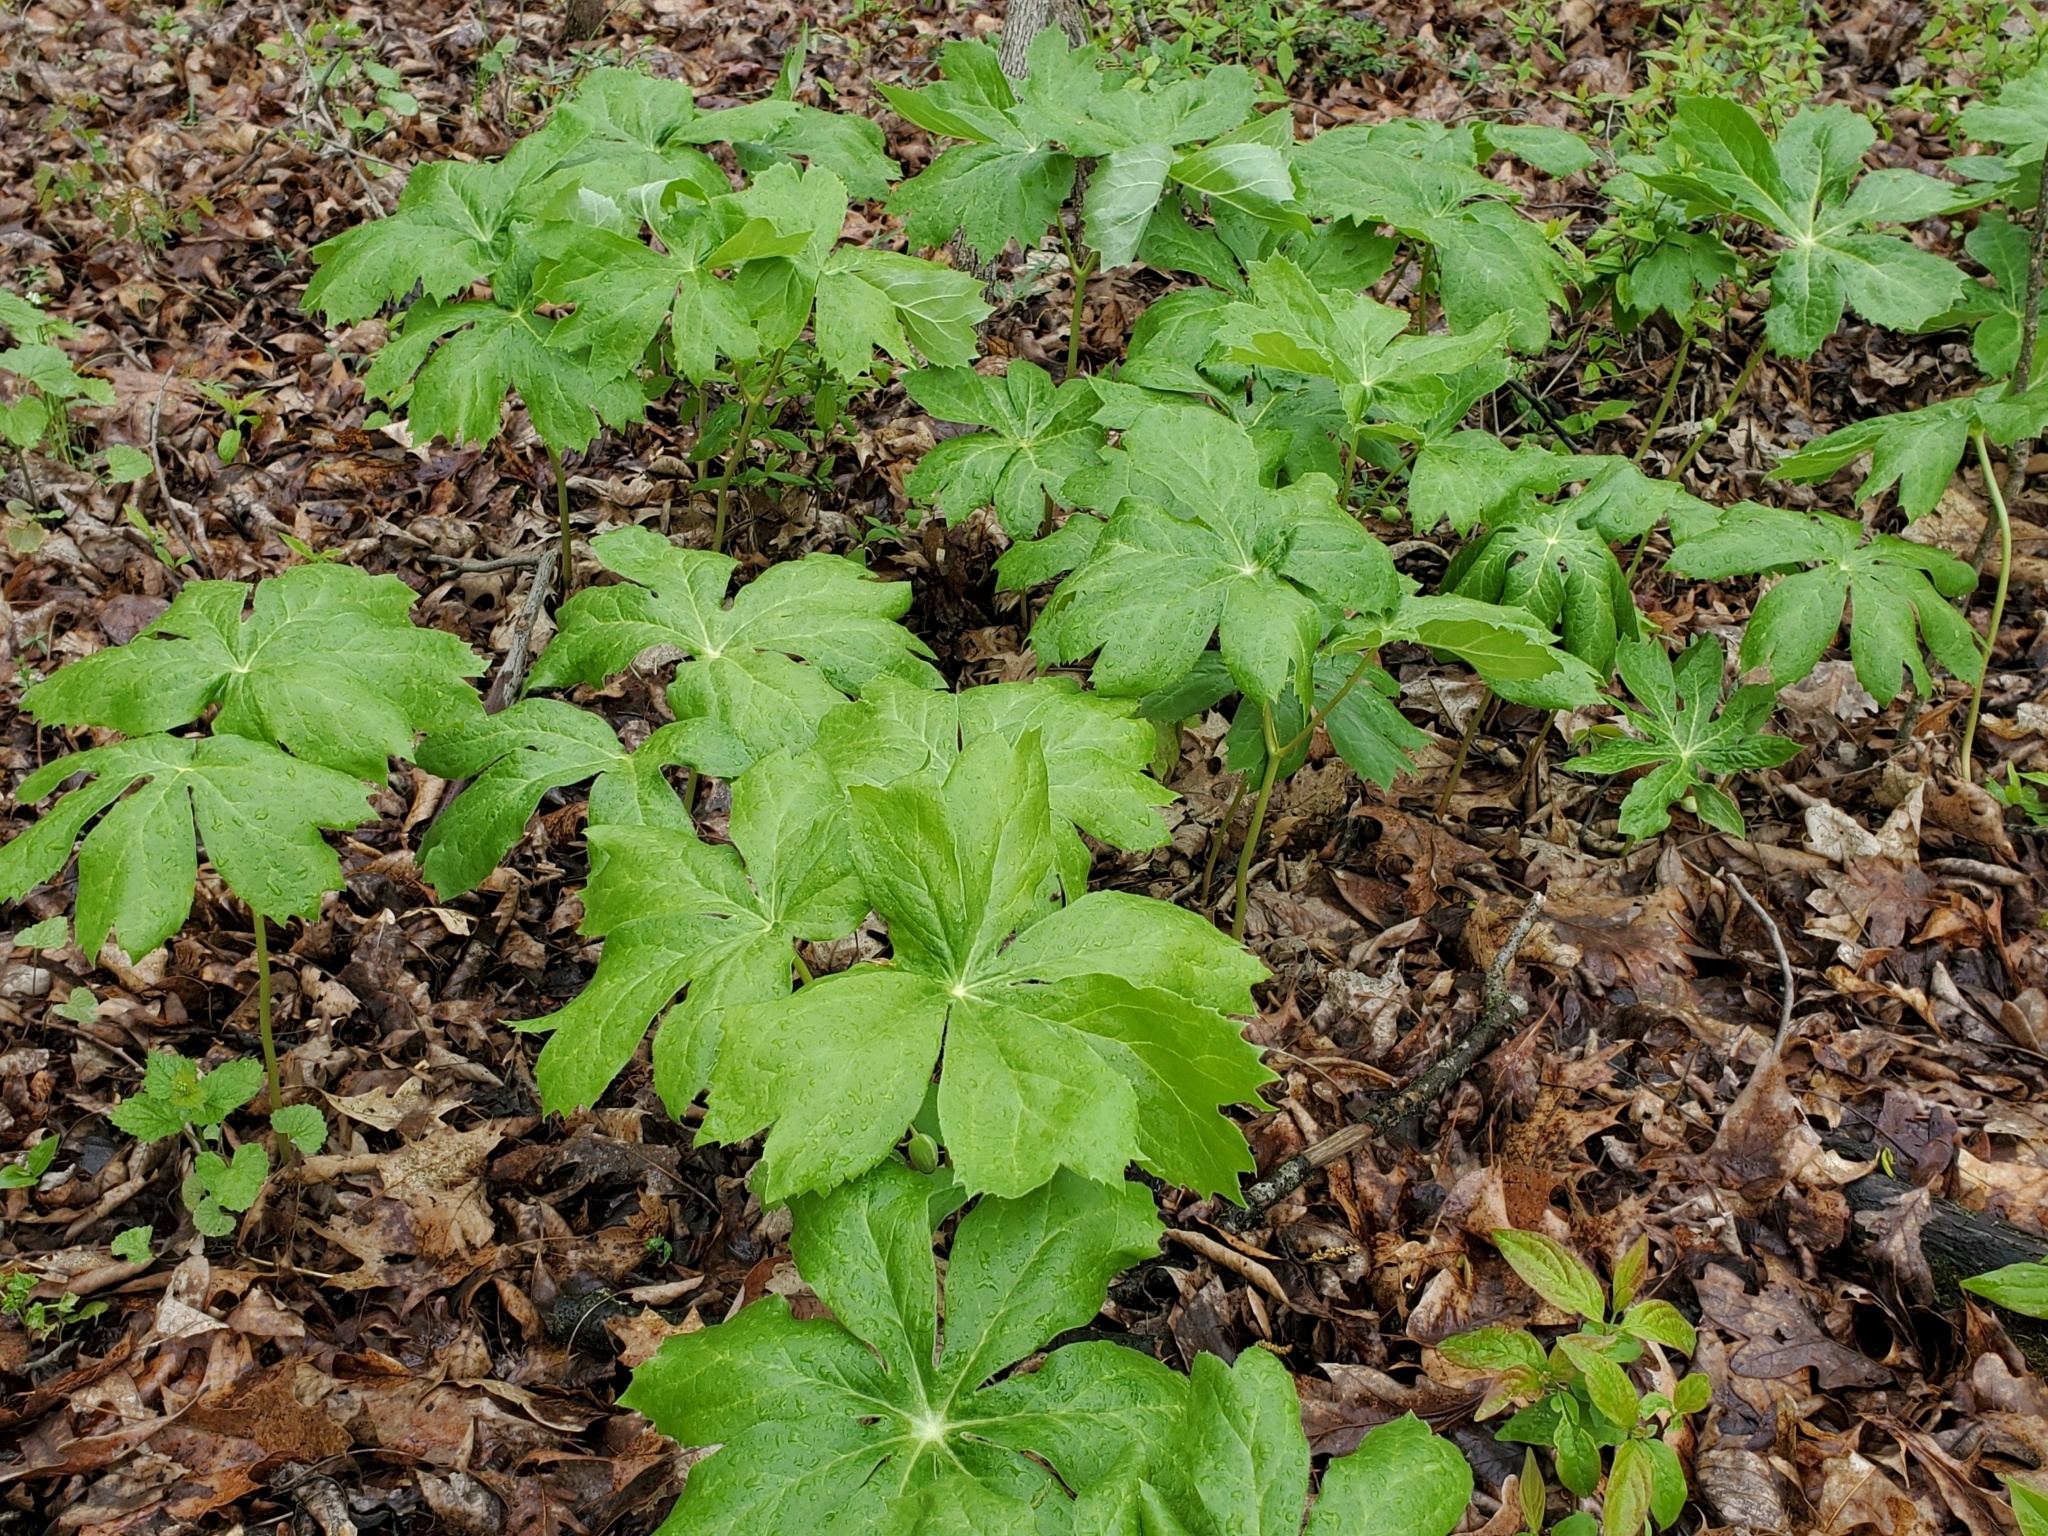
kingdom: Plantae
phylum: Tracheophyta
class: Magnoliopsida
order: Ranunculales
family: Berberidaceae
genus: Podophyllum
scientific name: Podophyllum peltatum
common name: Wild mandrake
